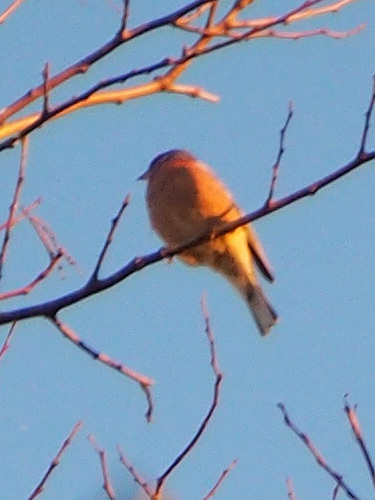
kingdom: Animalia
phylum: Chordata
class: Aves
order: Passeriformes
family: Fringillidae
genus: Fringilla
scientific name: Fringilla coelebs
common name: Common chaffinch
